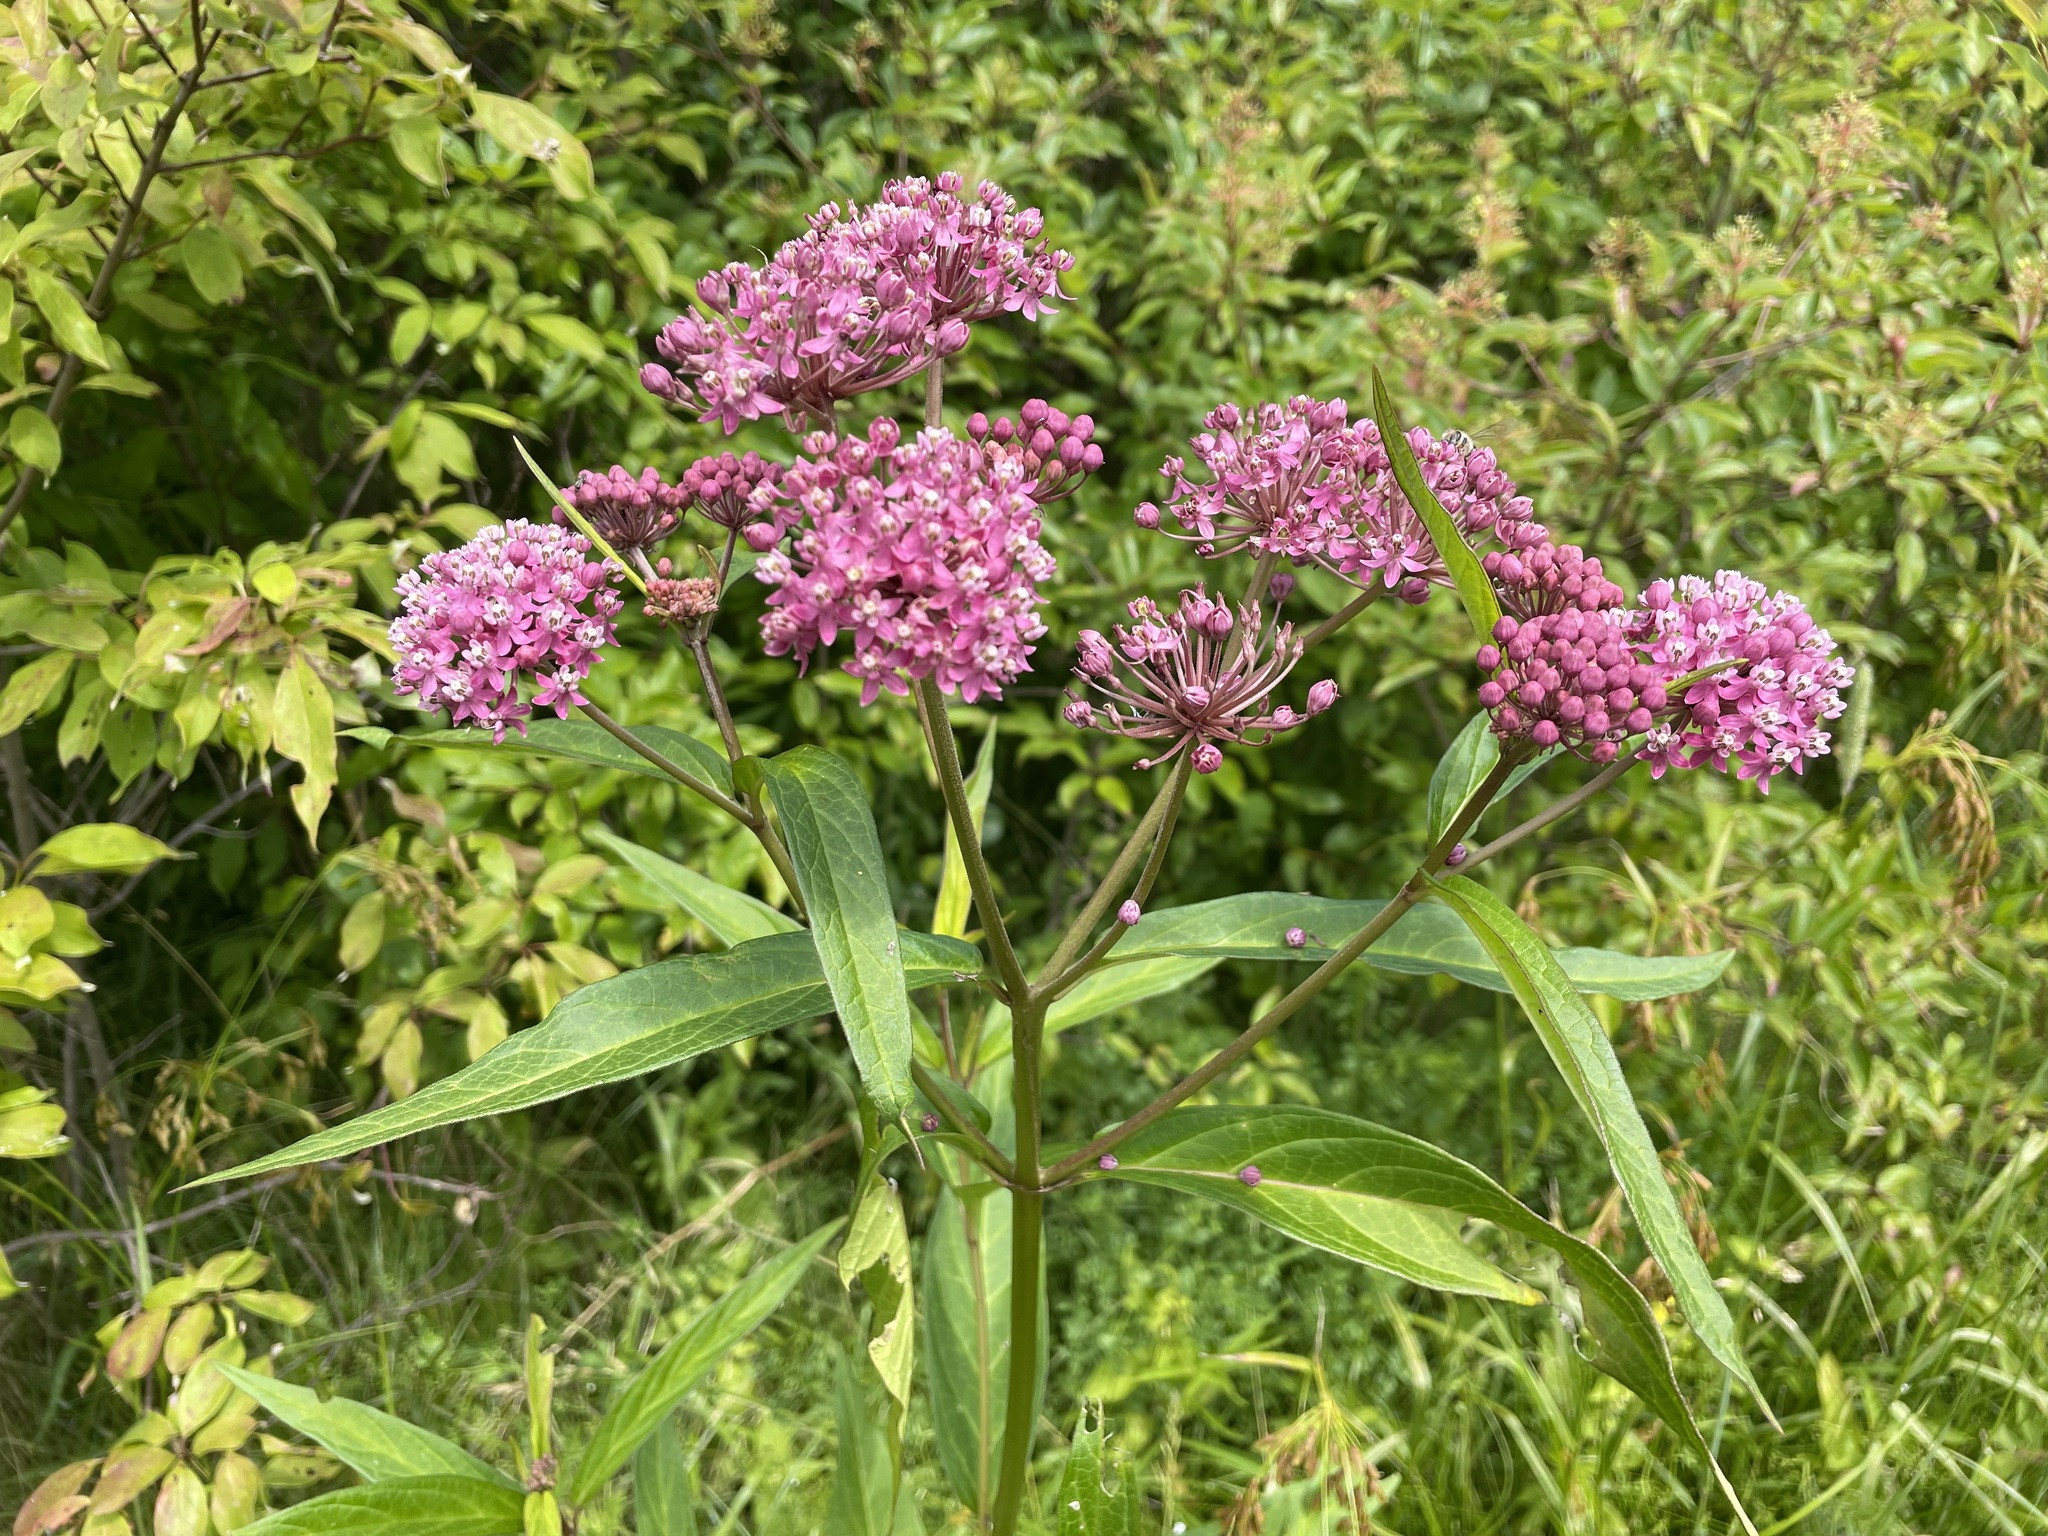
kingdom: Plantae
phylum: Tracheophyta
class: Magnoliopsida
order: Gentianales
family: Apocynaceae
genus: Asclepias
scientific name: Asclepias incarnata
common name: Swamp milkweed
